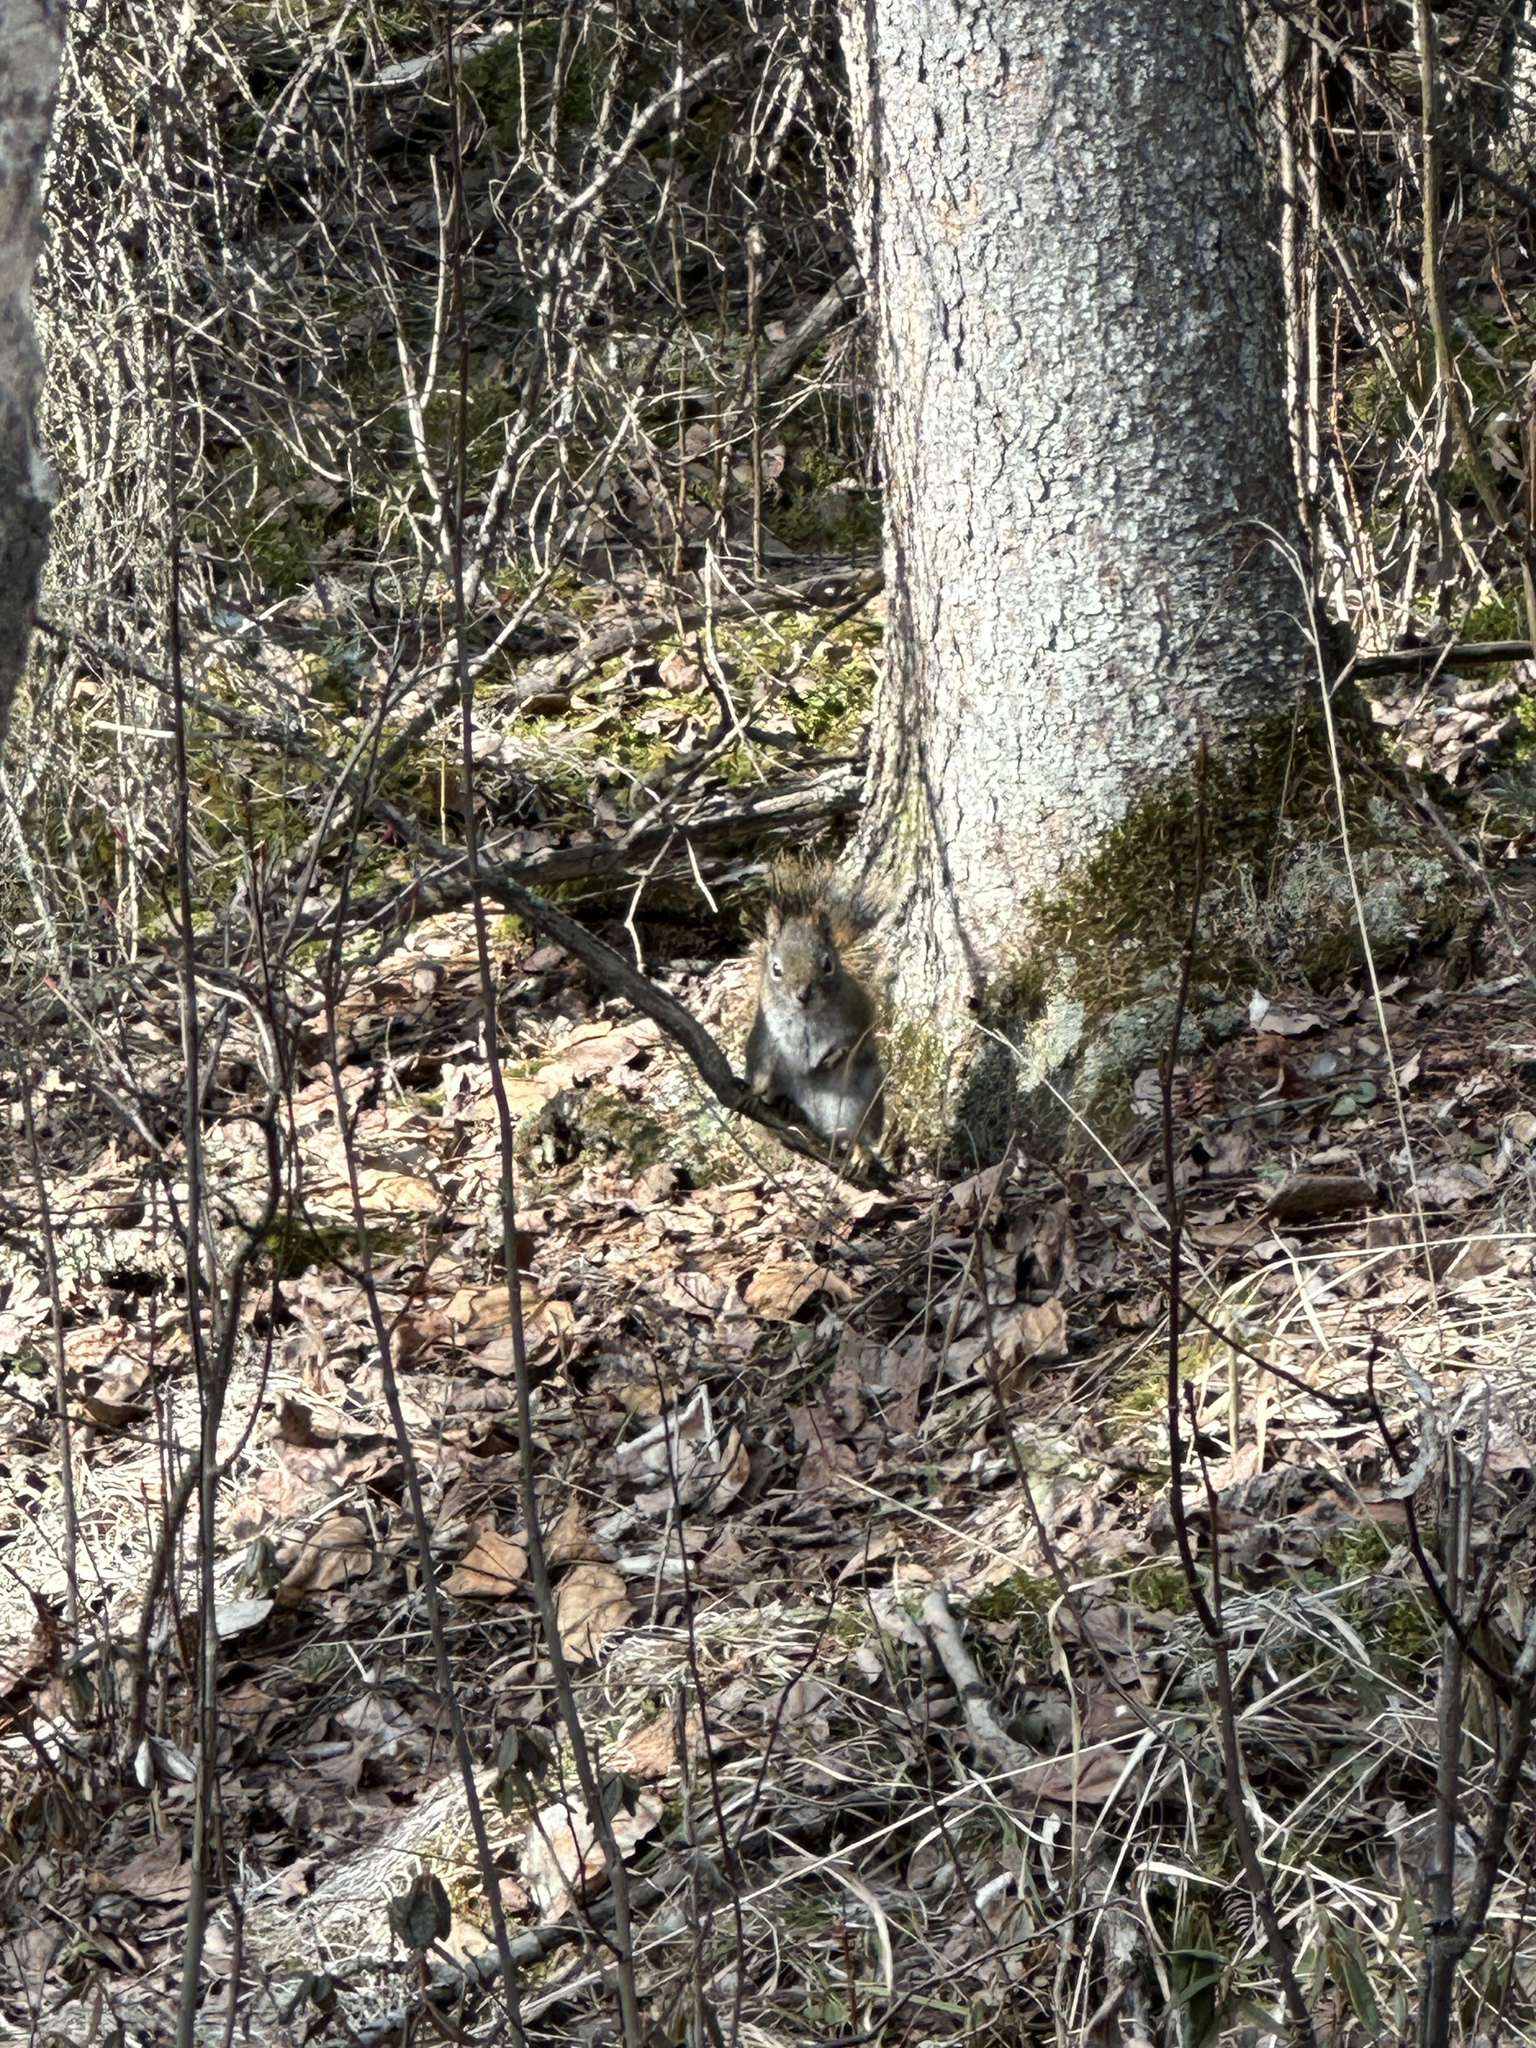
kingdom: Animalia
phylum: Chordata
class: Mammalia
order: Rodentia
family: Sciuridae
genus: Tamiasciurus
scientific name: Tamiasciurus hudsonicus
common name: Red squirrel
